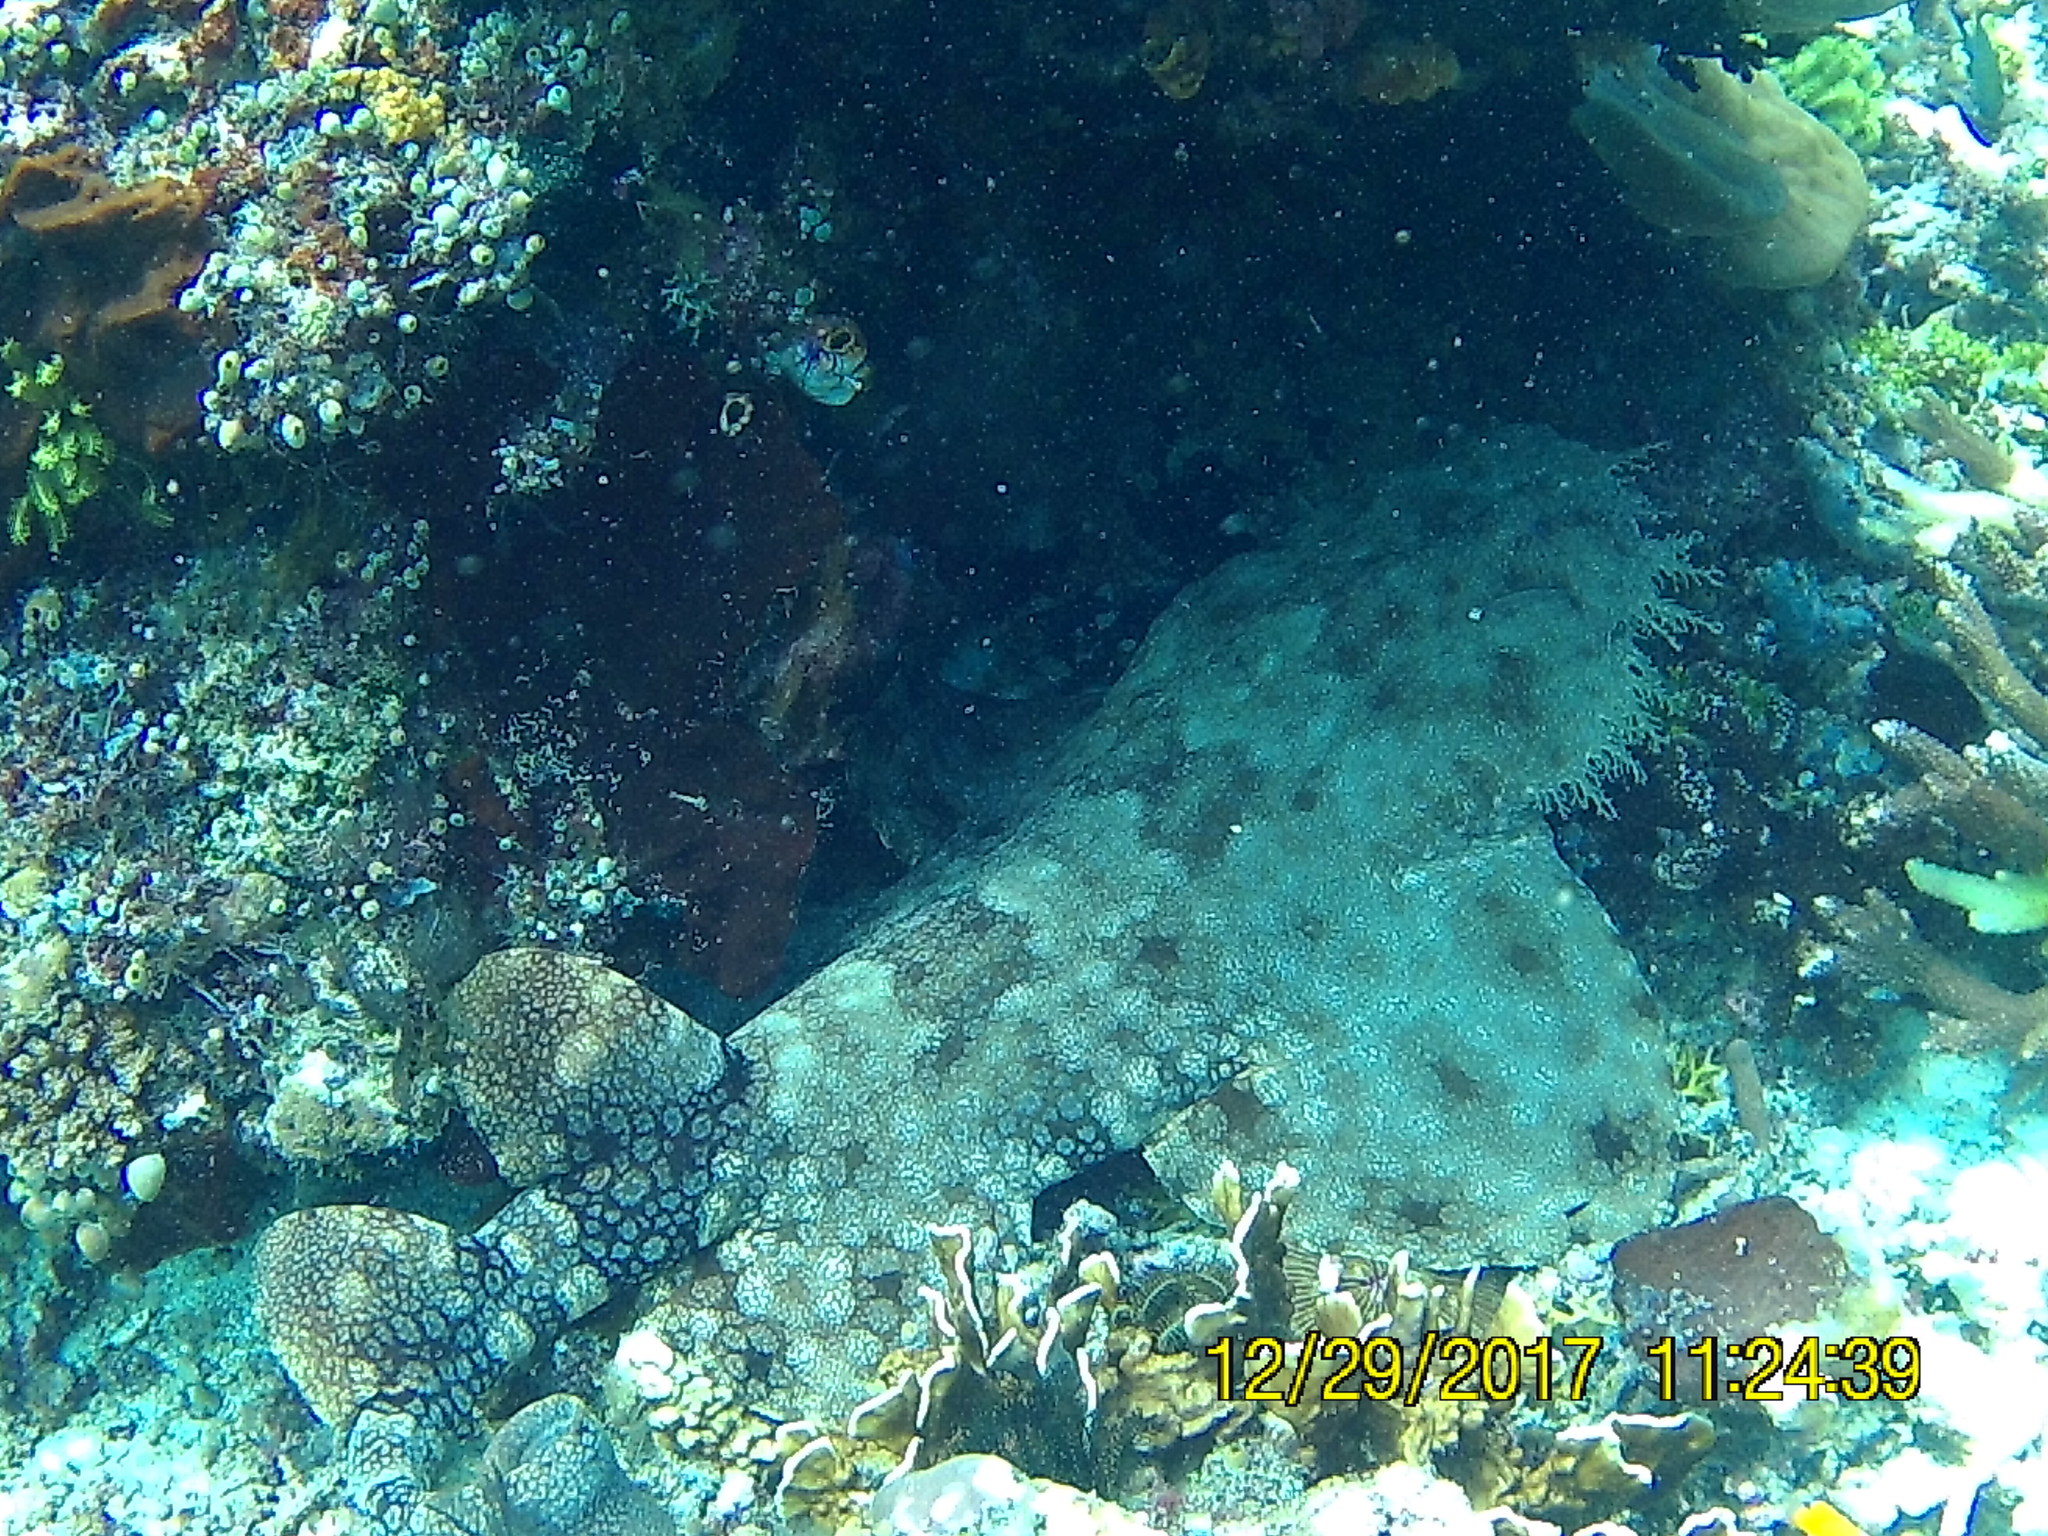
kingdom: Animalia
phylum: Chordata
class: Elasmobranchii
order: Orectolobiformes
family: Orectolobidae
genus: Eucrossorhinus
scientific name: Eucrossorhinus dasypogon
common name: Tasselled wobbegong
